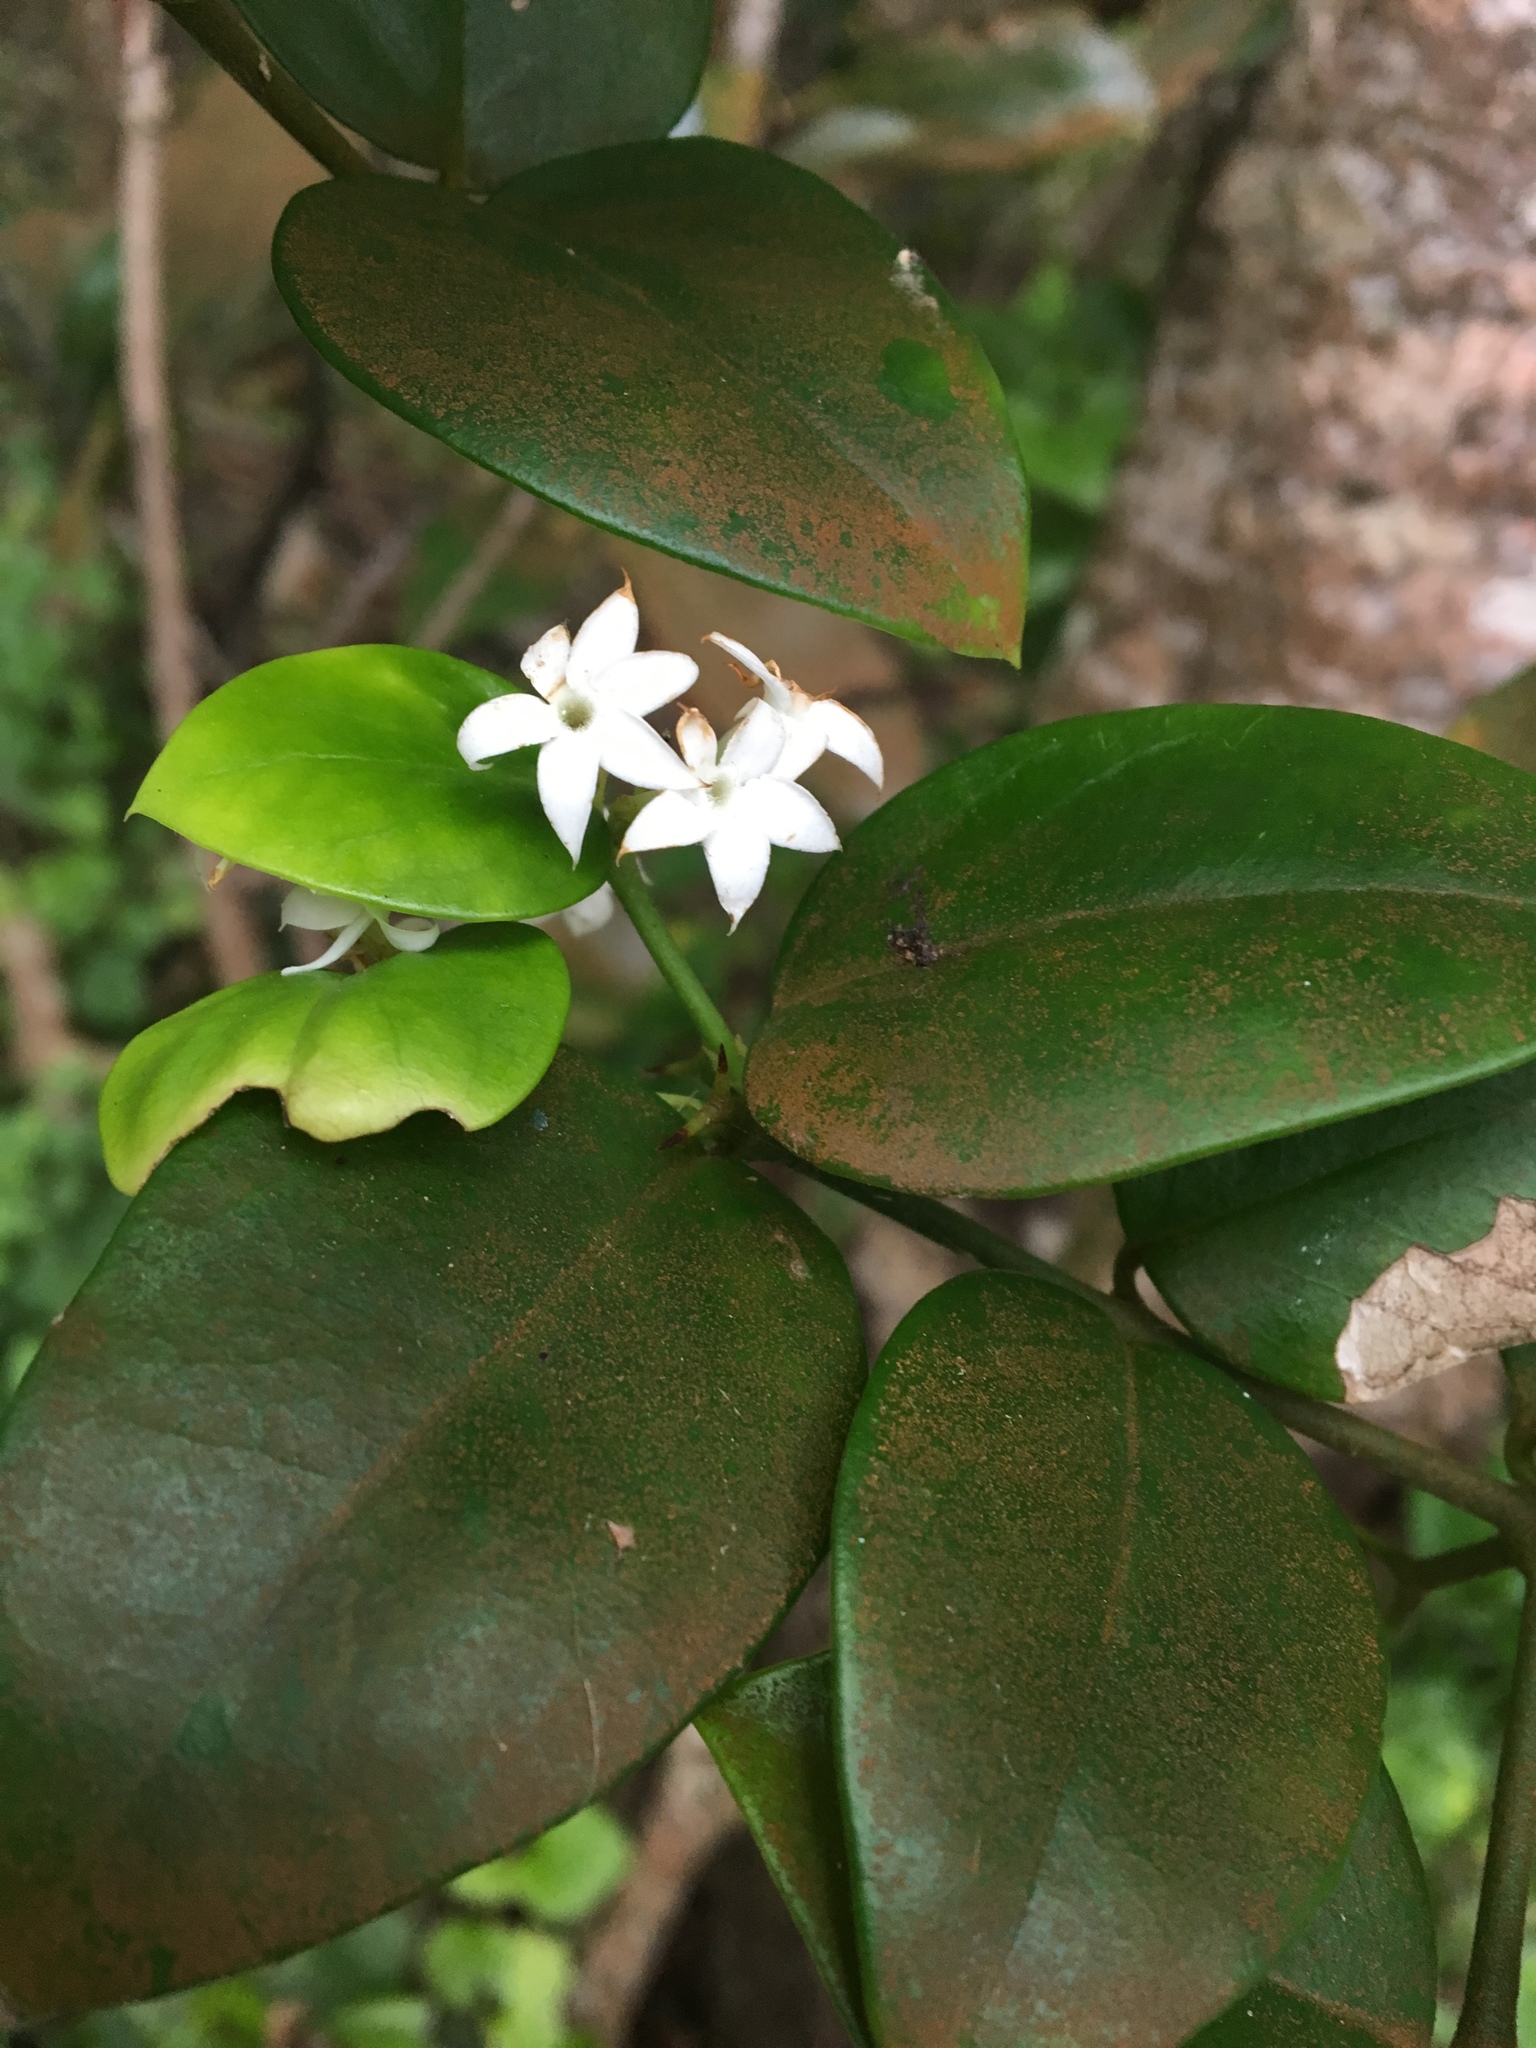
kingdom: Plantae
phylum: Tracheophyta
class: Magnoliopsida
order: Gentianales
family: Apocynaceae
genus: Carissa
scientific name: Carissa bispinosa
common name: Forest num-num
